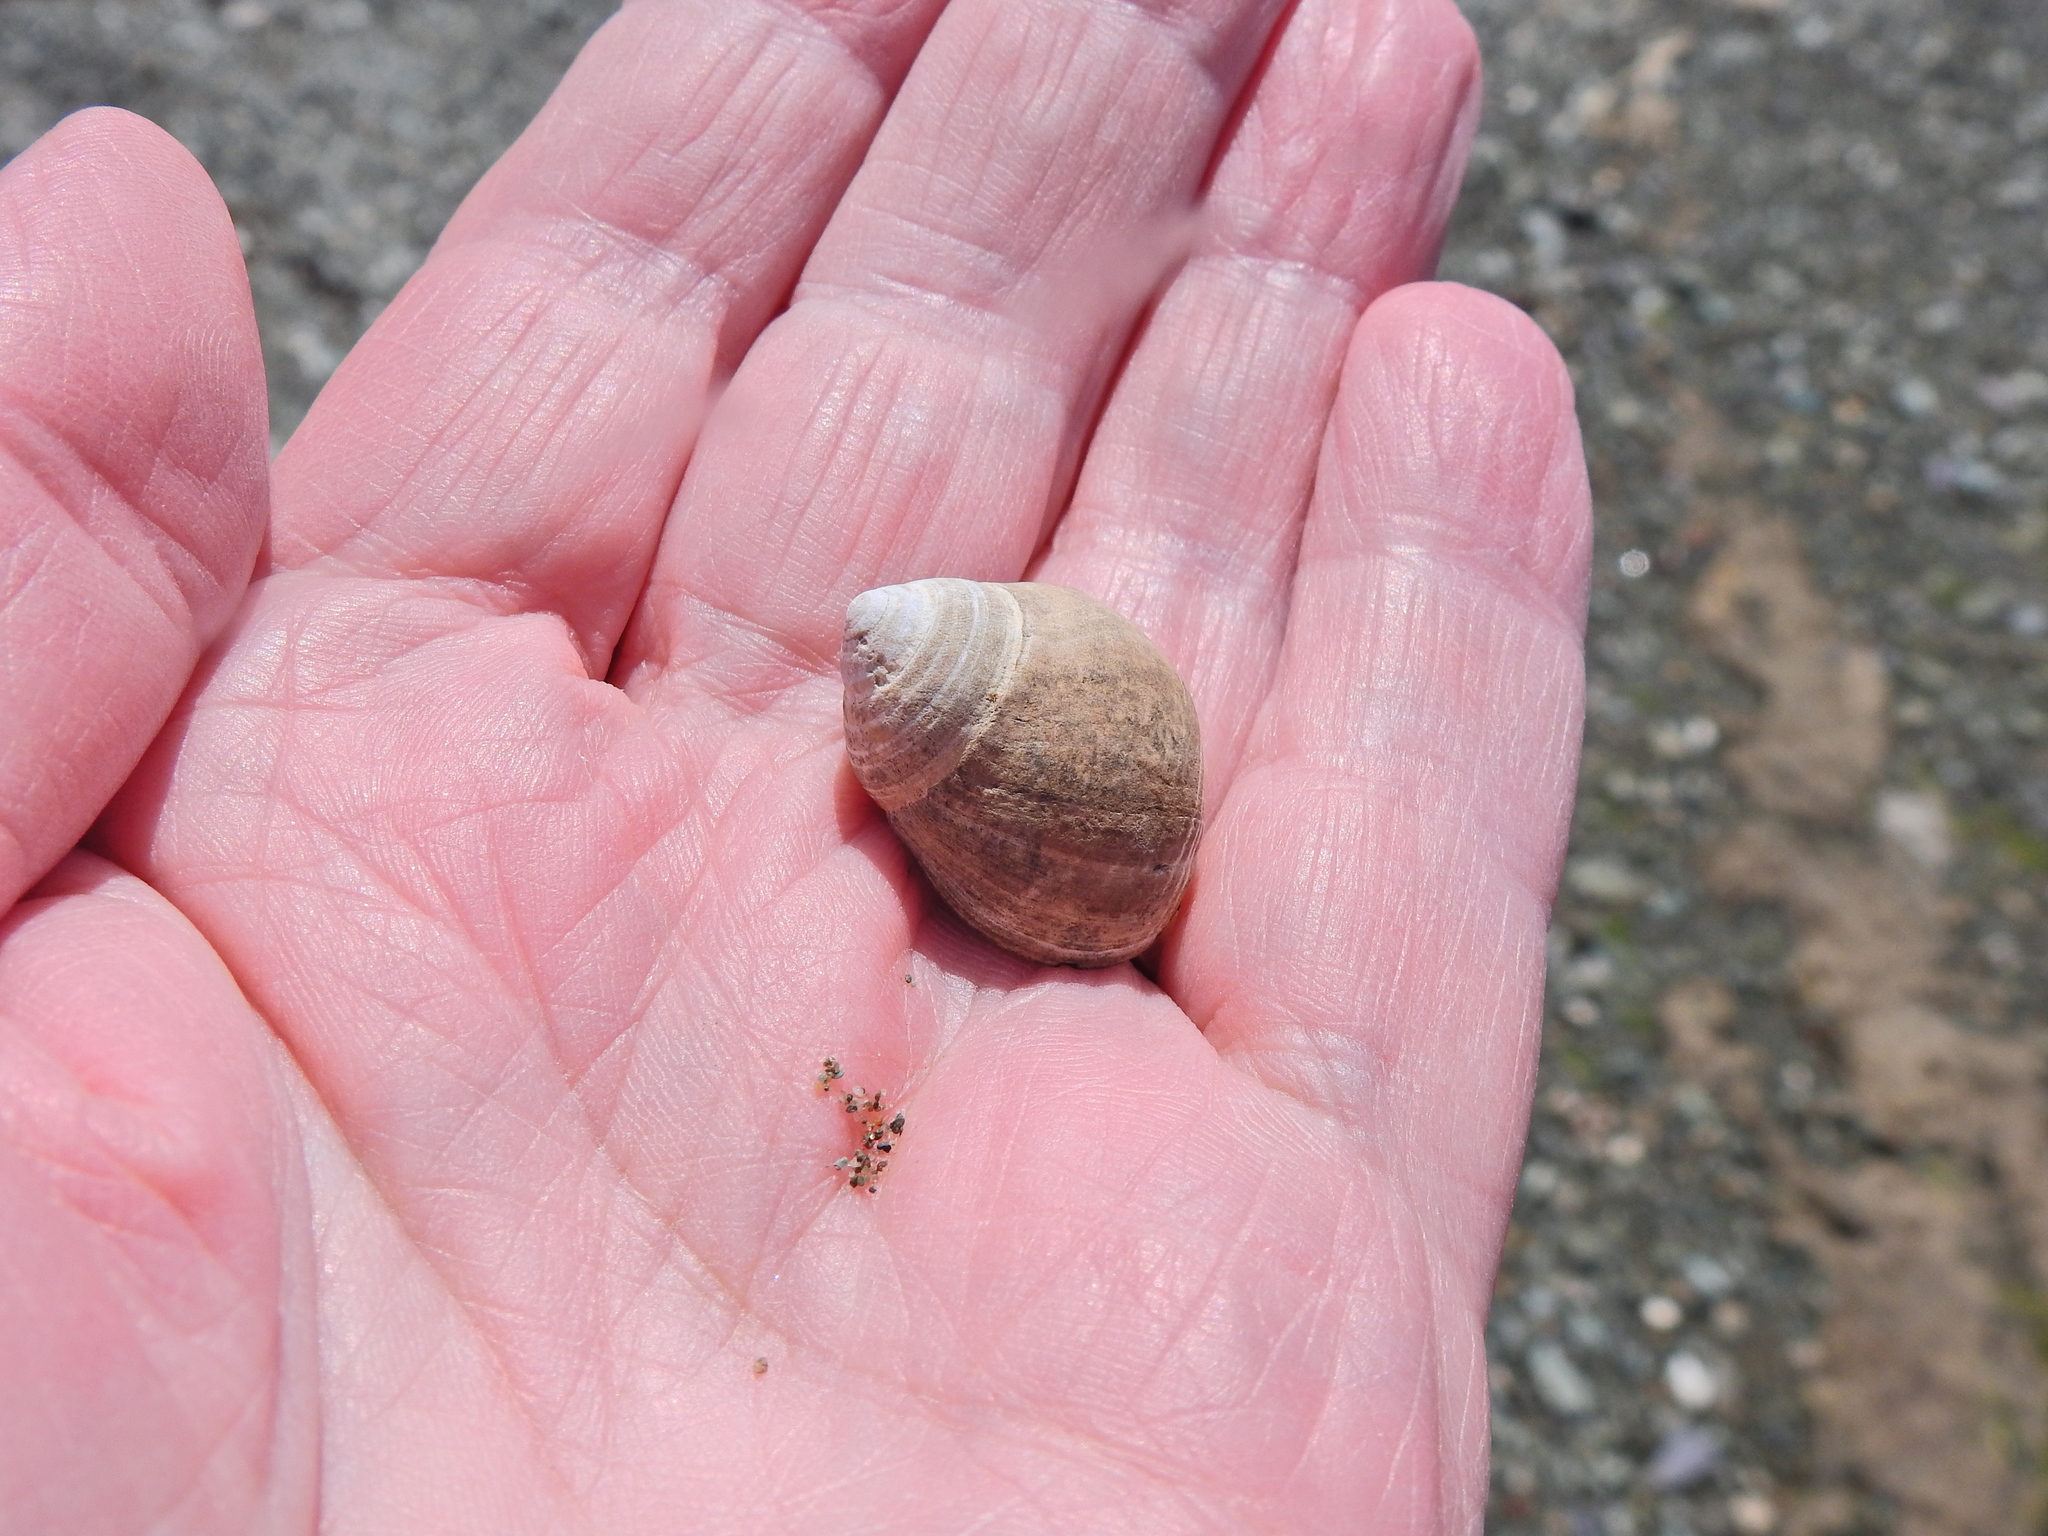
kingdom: Animalia
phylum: Mollusca
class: Gastropoda
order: Littorinimorpha
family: Littorinidae
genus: Littorina
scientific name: Littorina littorea
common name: Common periwinkle
